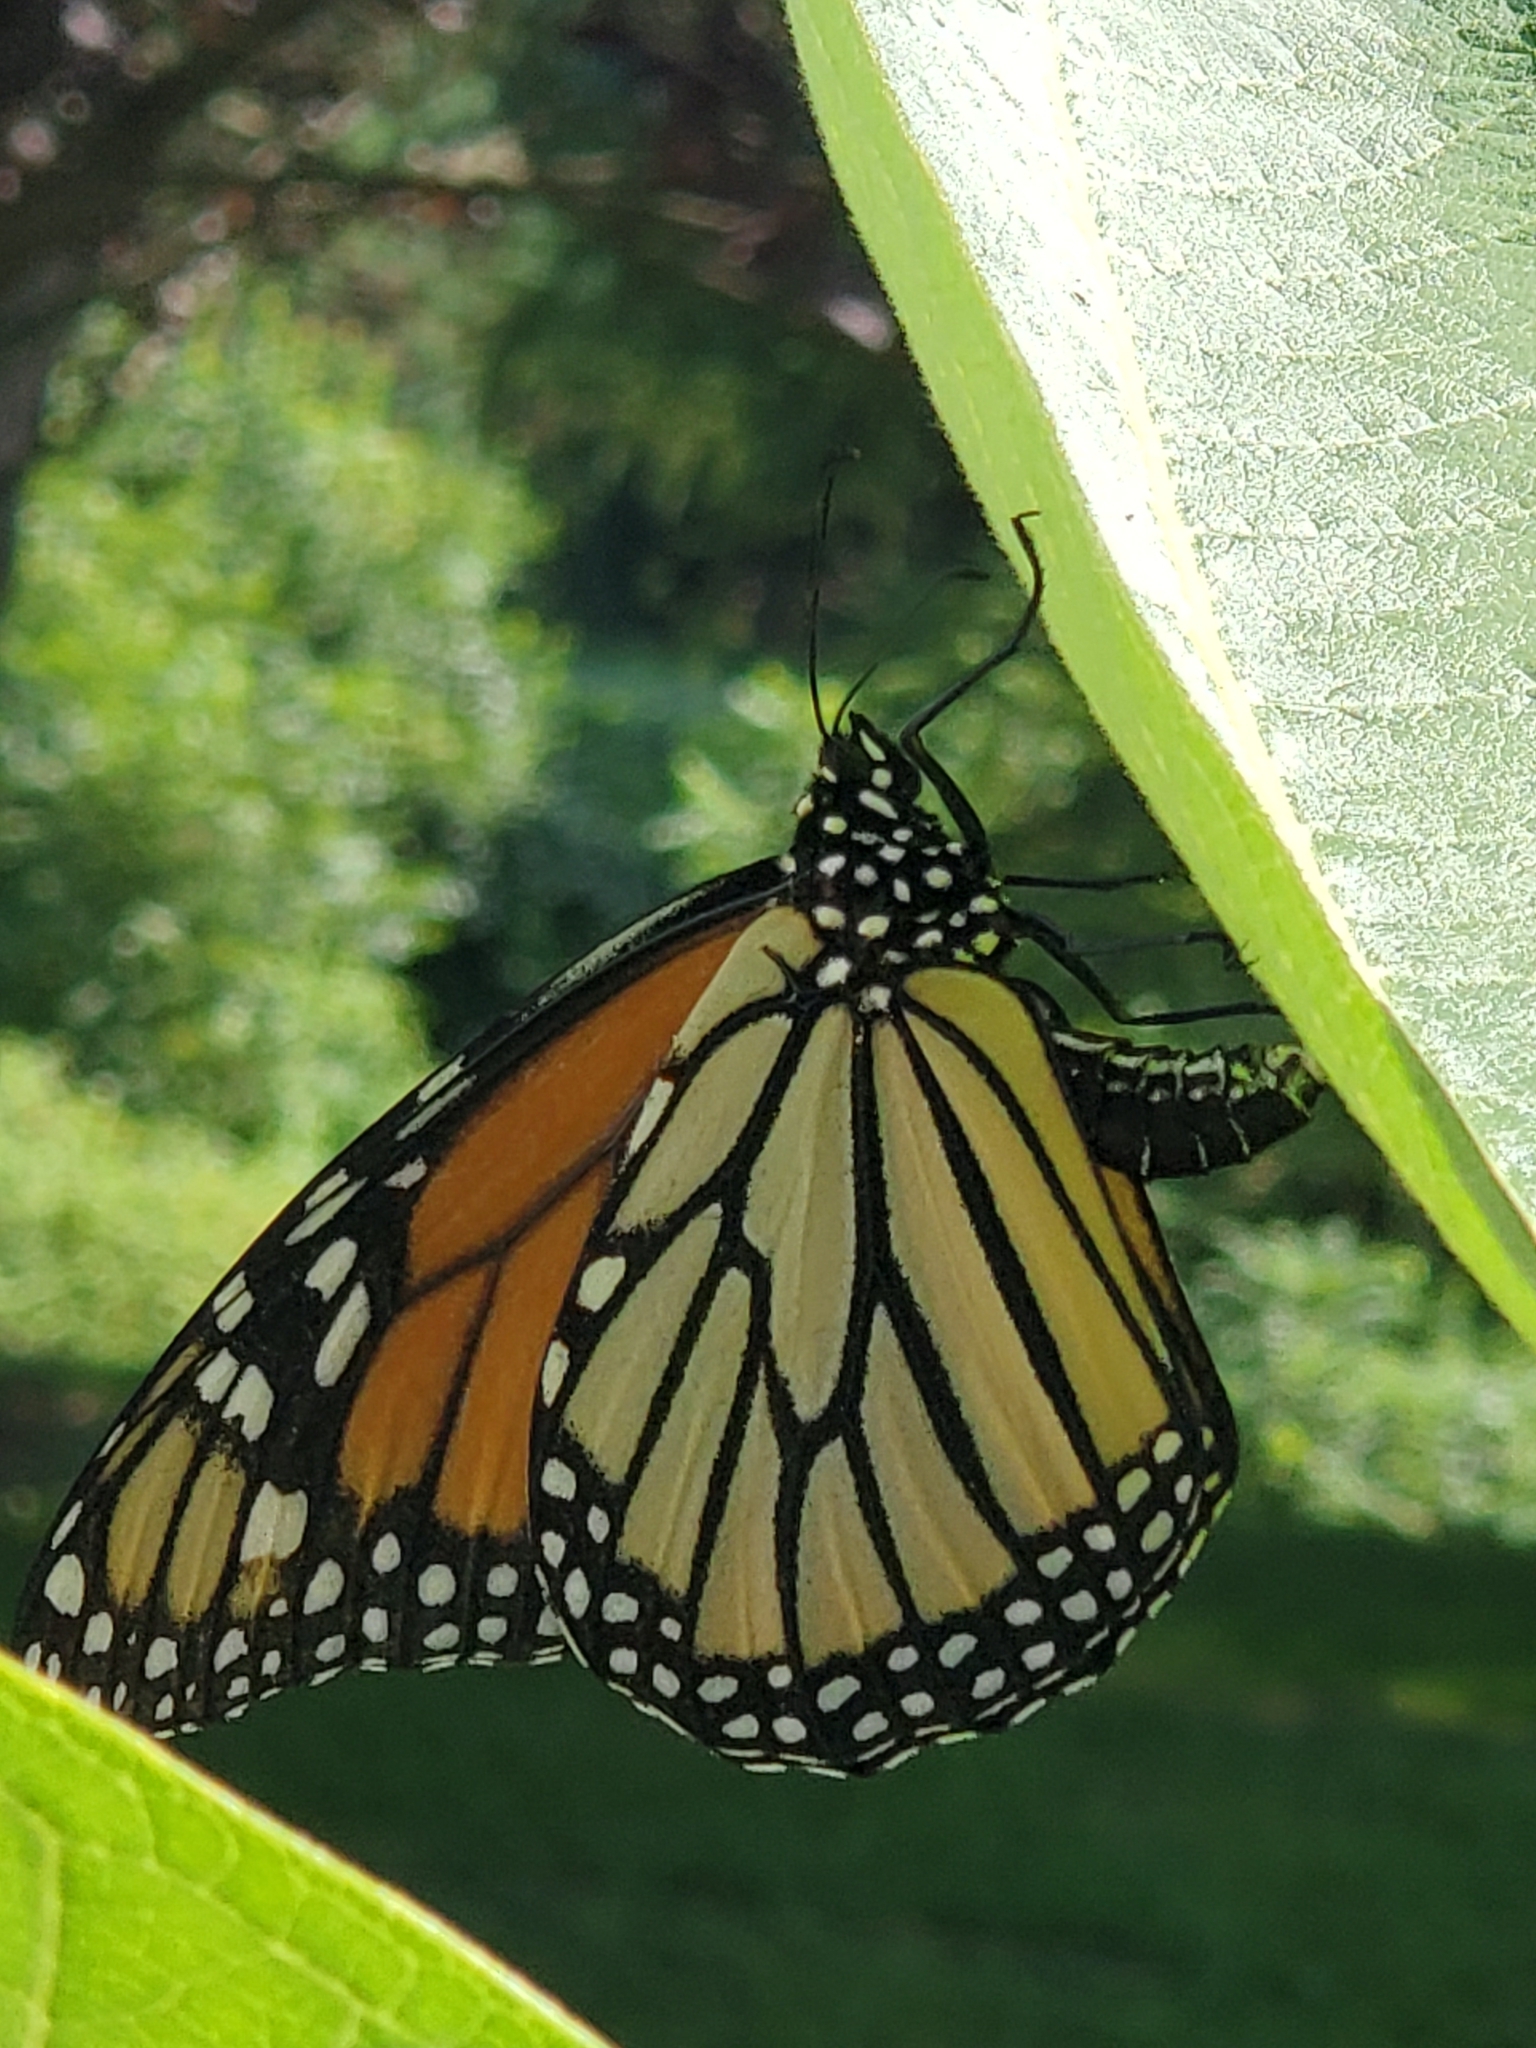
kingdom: Animalia
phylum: Arthropoda
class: Insecta
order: Lepidoptera
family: Nymphalidae
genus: Danaus
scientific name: Danaus plexippus
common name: Monarch
